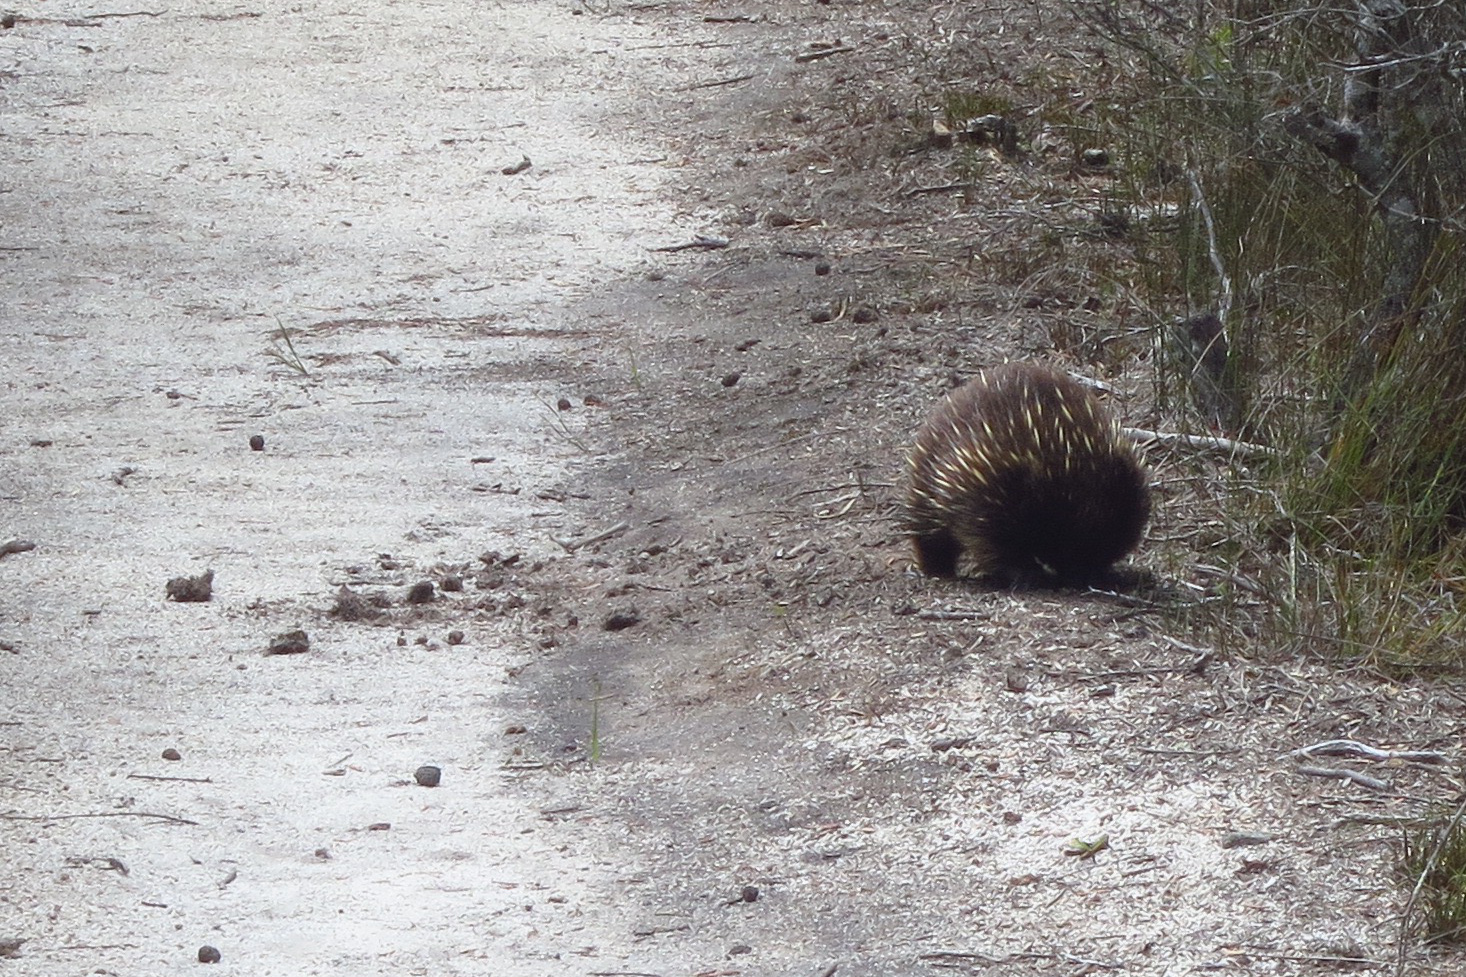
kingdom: Animalia
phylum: Chordata
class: Mammalia
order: Monotremata
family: Tachyglossidae
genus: Tachyglossus
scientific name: Tachyglossus aculeatus
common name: Short-beaked echidna
